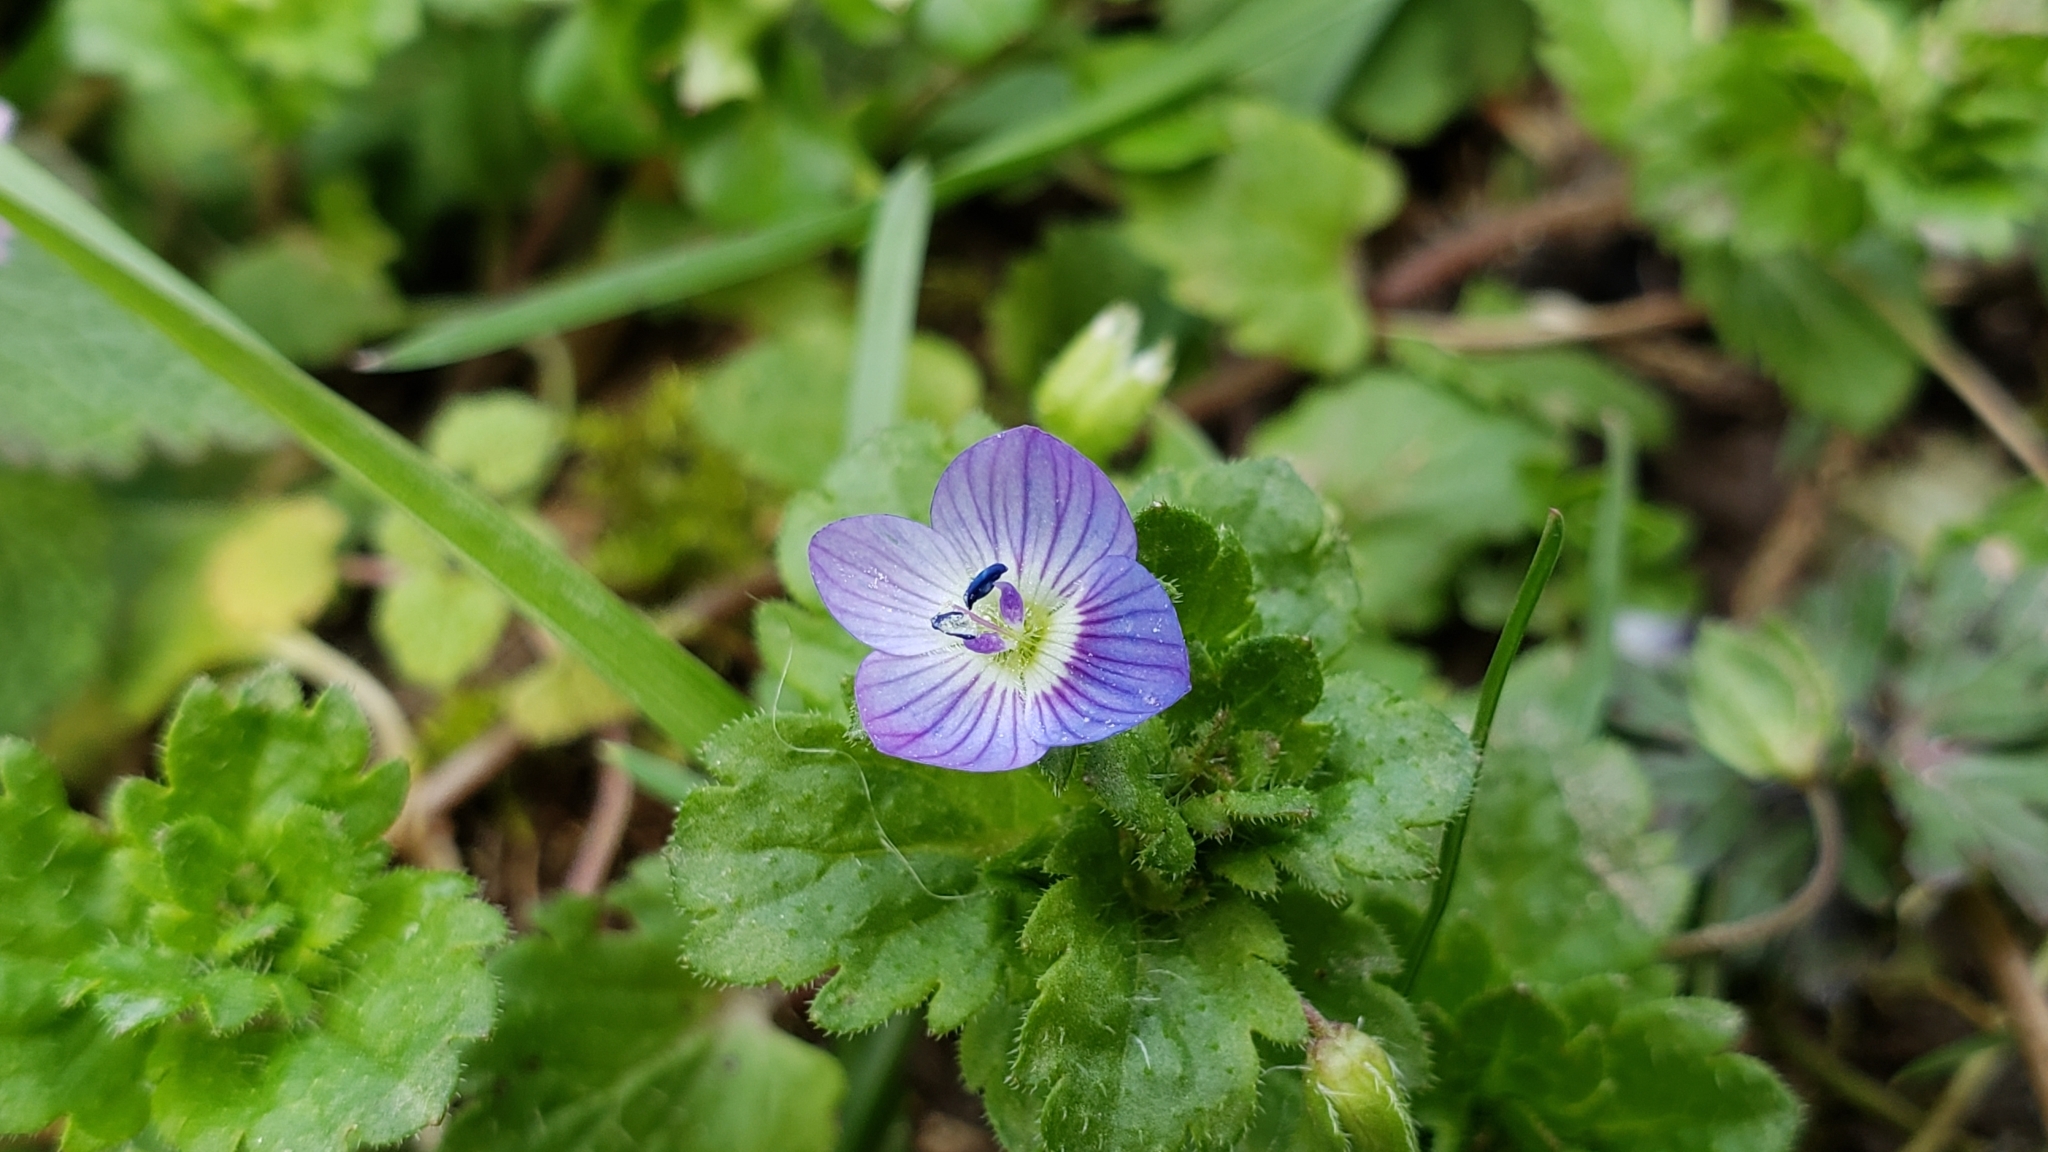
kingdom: Plantae
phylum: Tracheophyta
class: Magnoliopsida
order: Lamiales
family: Plantaginaceae
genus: Veronica
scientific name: Veronica persica
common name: Common field-speedwell
